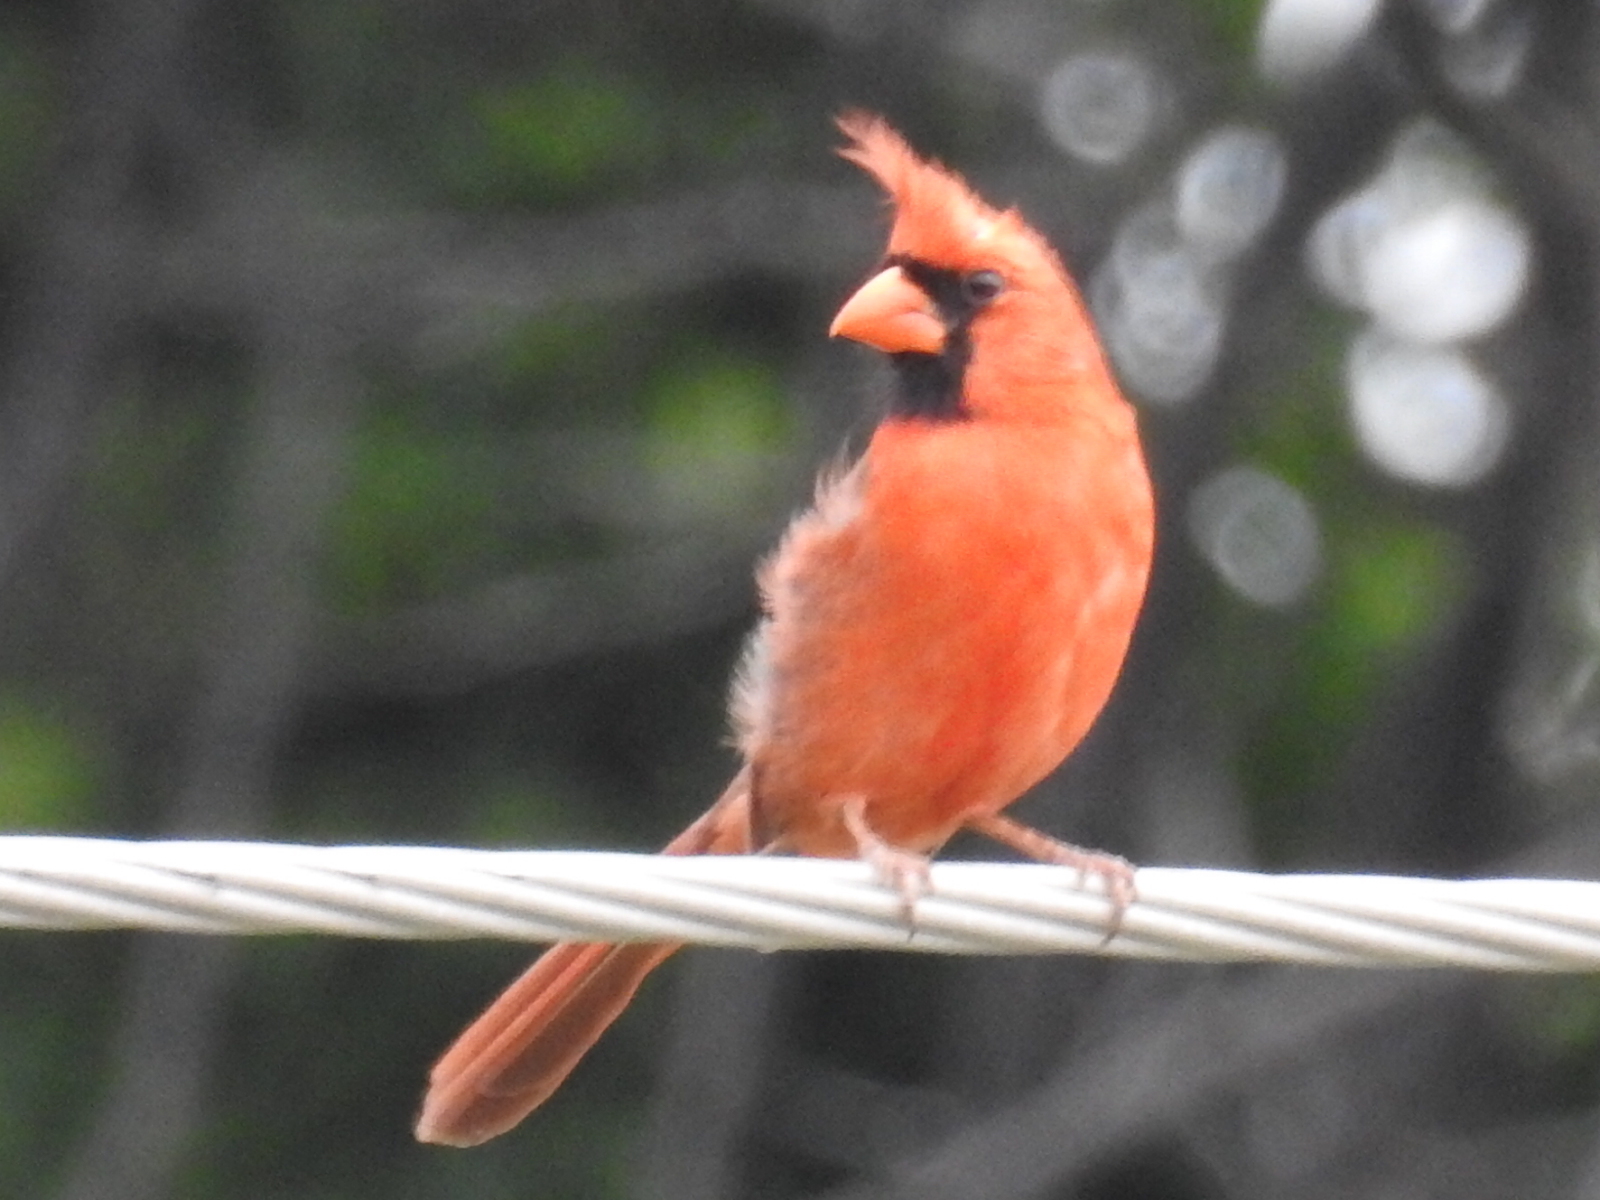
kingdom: Animalia
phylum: Chordata
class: Aves
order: Passeriformes
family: Cardinalidae
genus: Cardinalis
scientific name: Cardinalis cardinalis
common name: Northern cardinal
